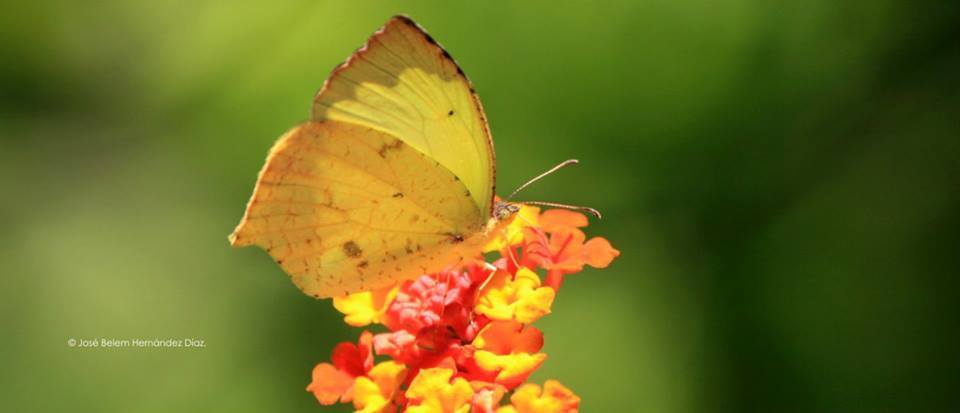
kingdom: Animalia
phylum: Arthropoda
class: Insecta
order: Lepidoptera
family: Pieridae
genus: Abaeis
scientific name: Abaeis salome
